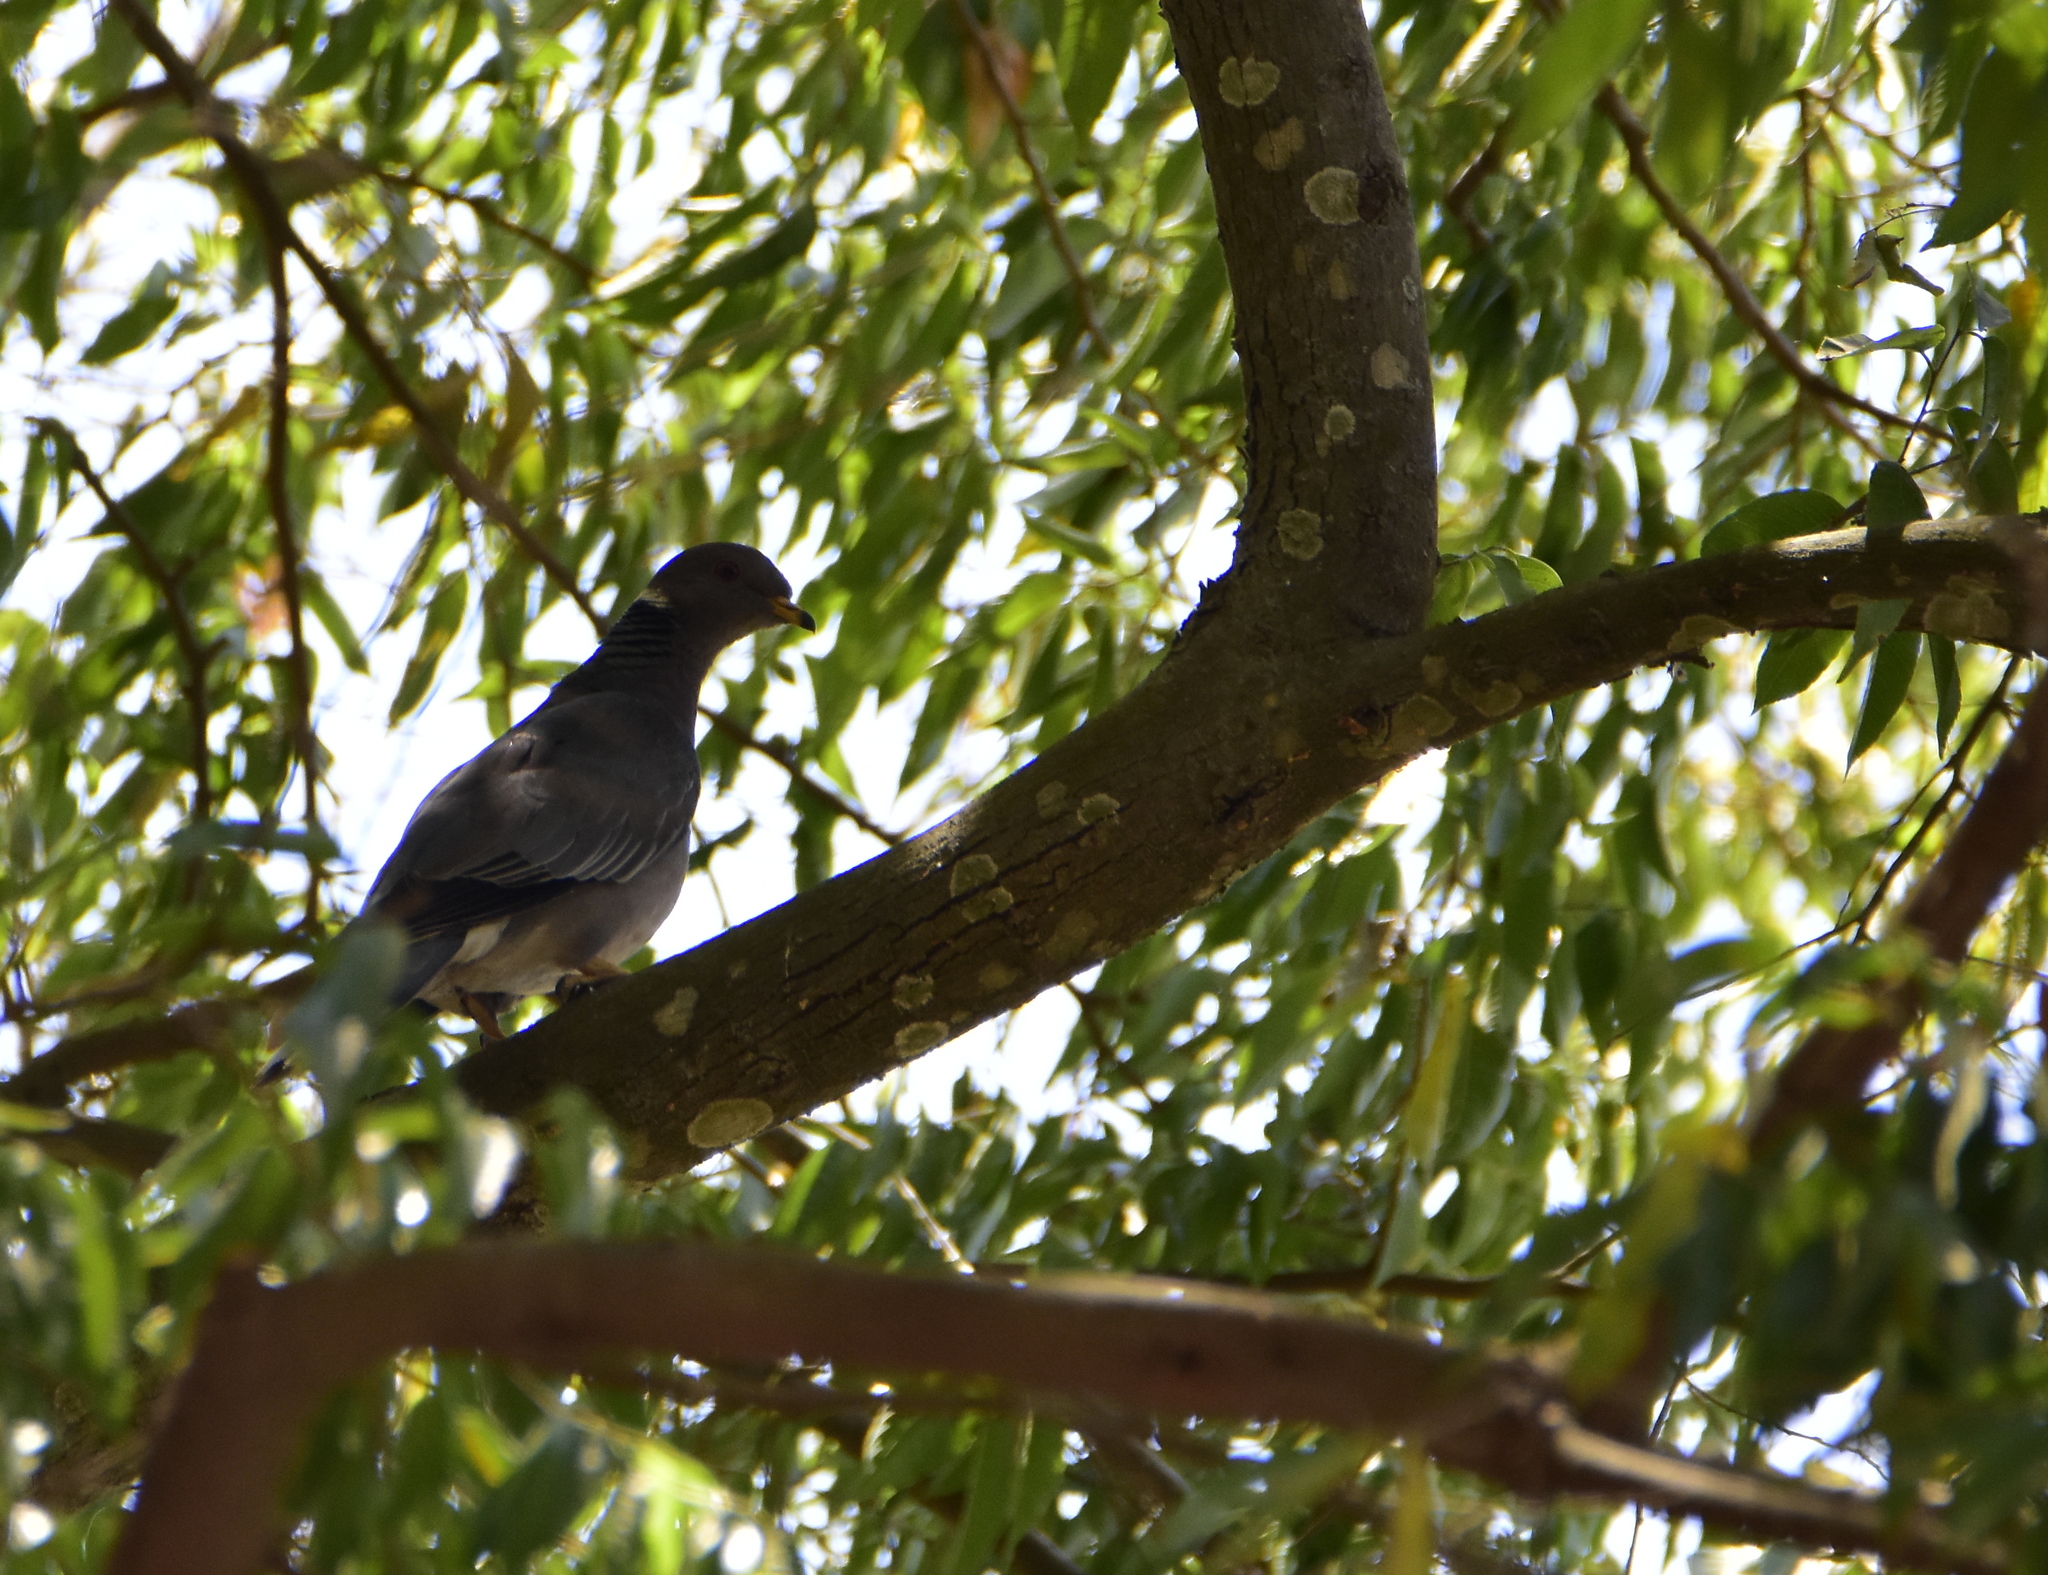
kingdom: Animalia
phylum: Chordata
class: Aves
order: Columbiformes
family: Columbidae
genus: Patagioenas
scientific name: Patagioenas fasciata
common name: Band-tailed pigeon
